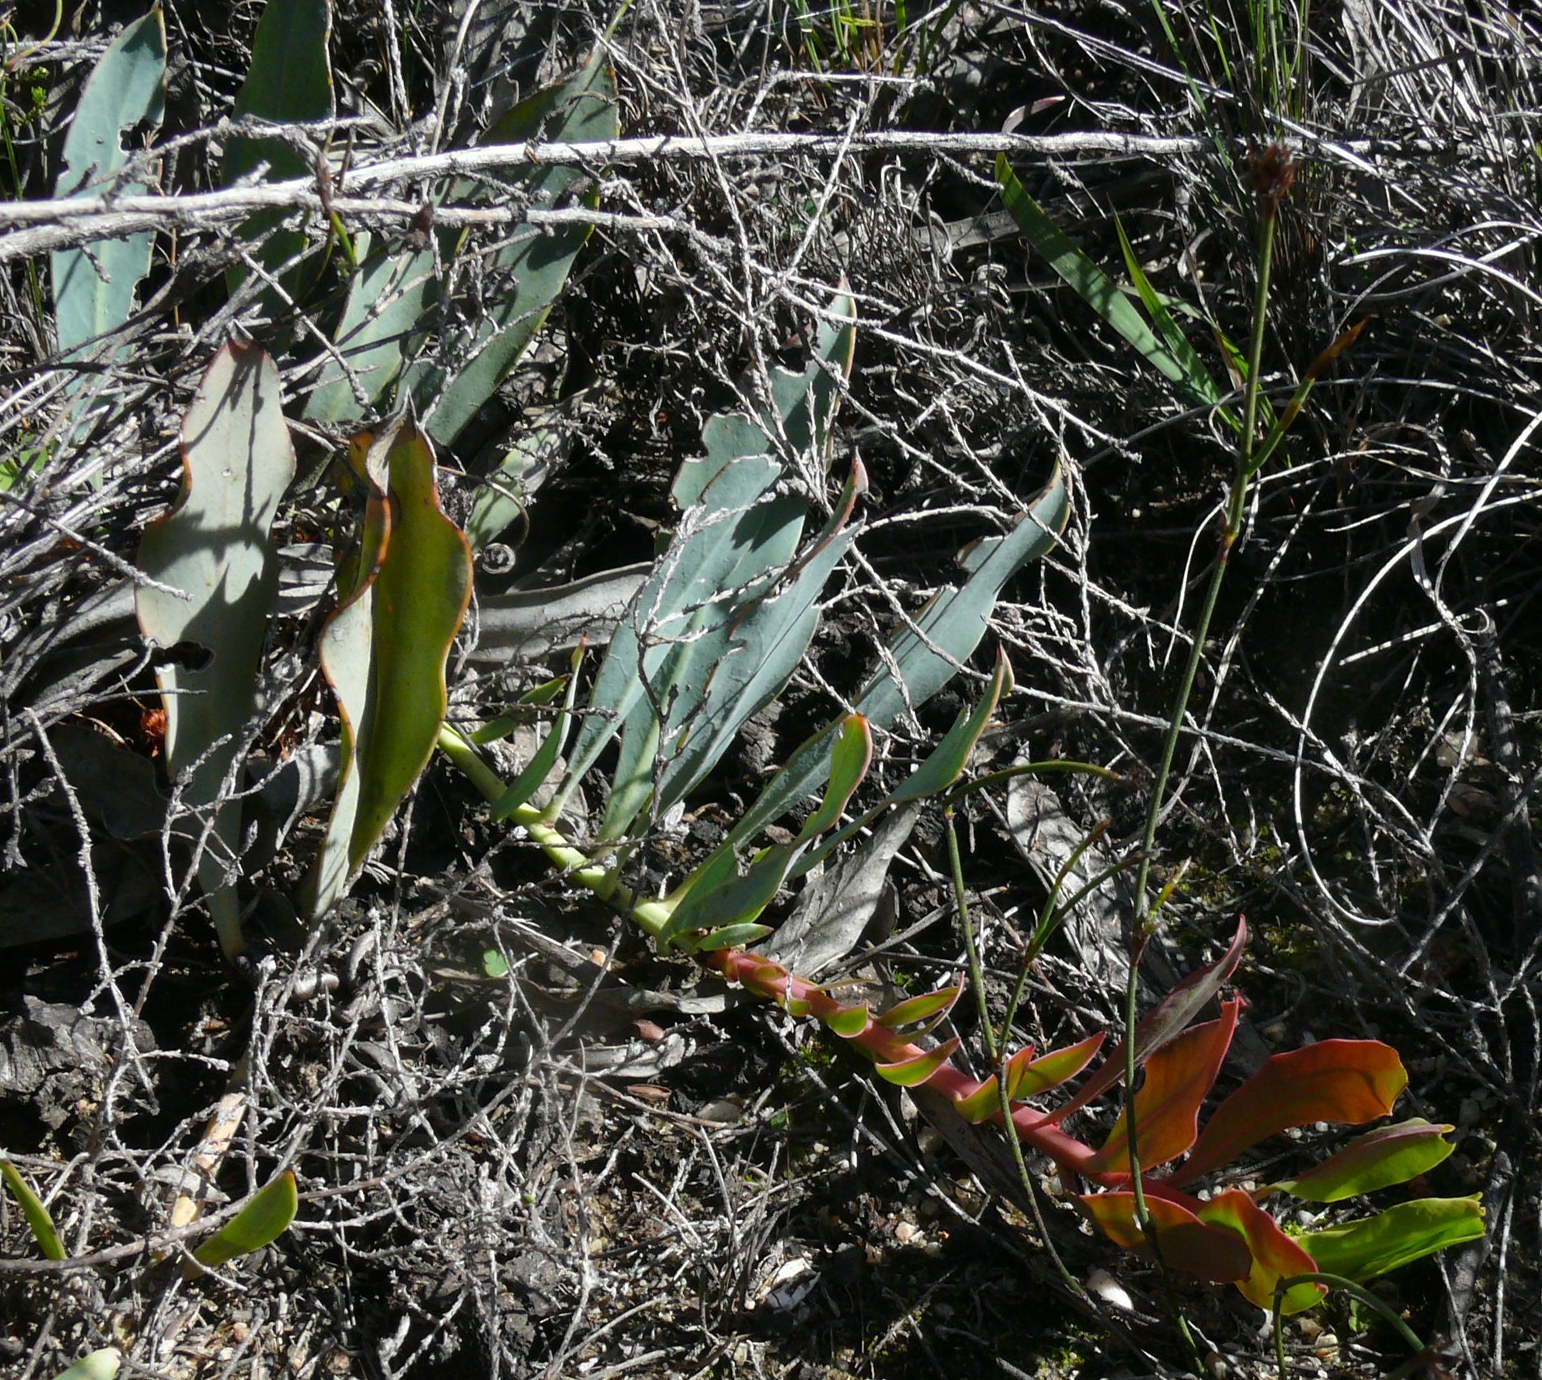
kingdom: Plantae
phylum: Tracheophyta
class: Magnoliopsida
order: Proteales
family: Proteaceae
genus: Protea
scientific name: Protea acaulos
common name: Common ground sugarbush
